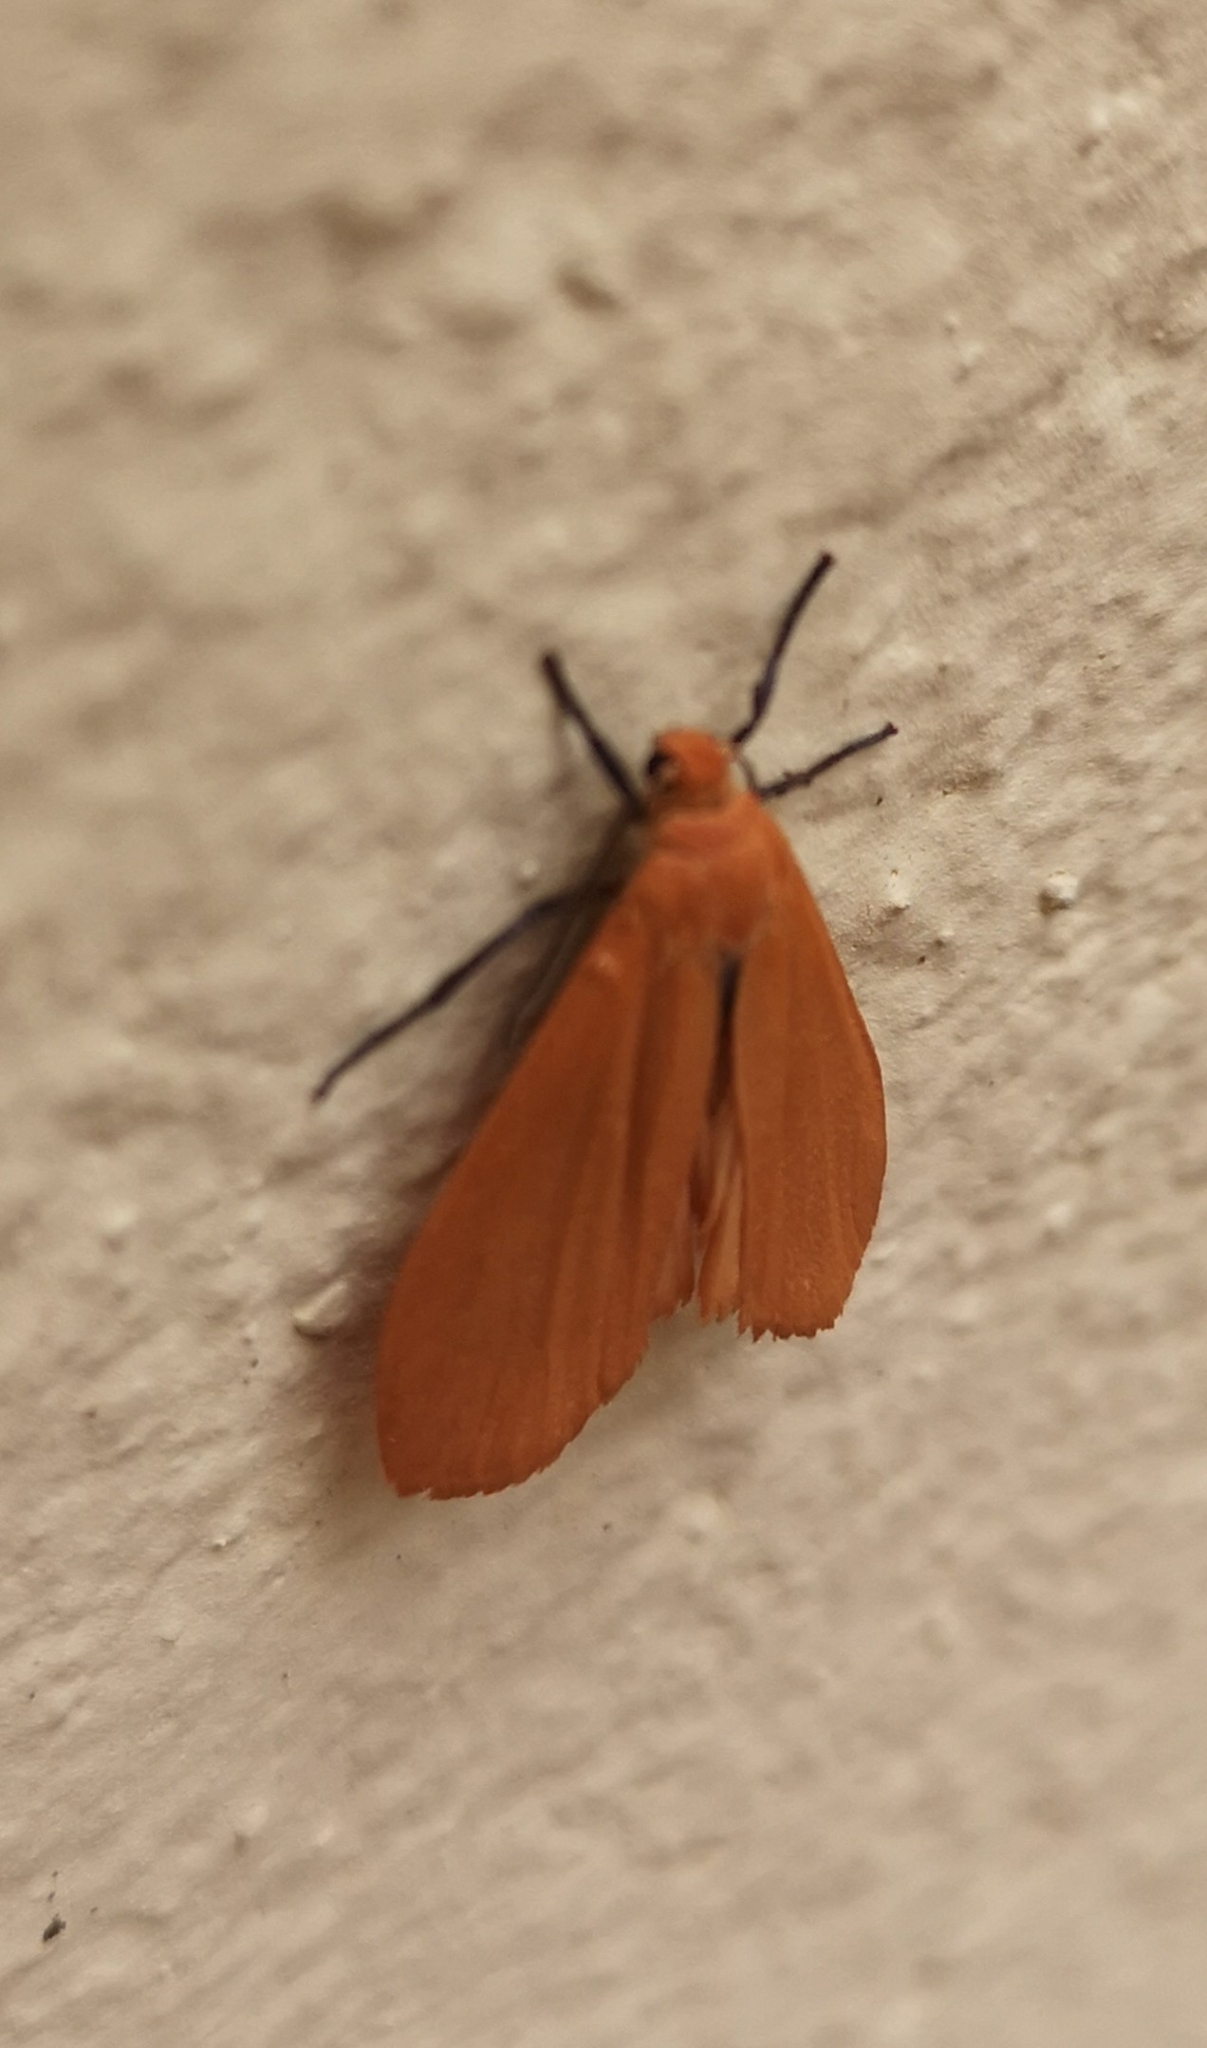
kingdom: Animalia
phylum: Arthropoda
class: Insecta
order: Lepidoptera
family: Erebidae
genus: Wittia
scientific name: Wittia sororcula
